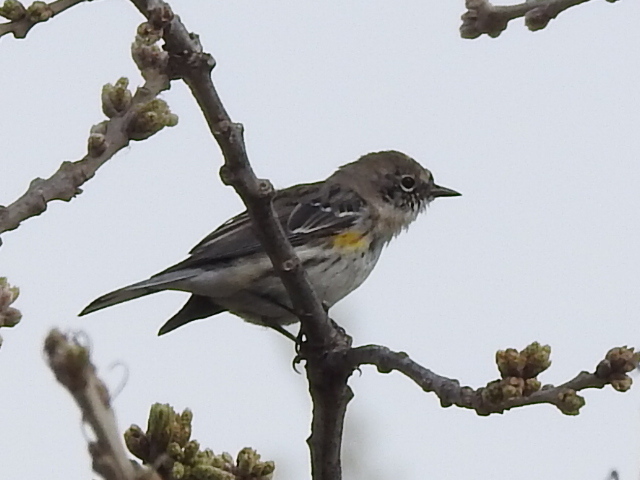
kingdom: Animalia
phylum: Chordata
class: Aves
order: Passeriformes
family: Parulidae
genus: Setophaga
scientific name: Setophaga coronata
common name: Myrtle warbler
